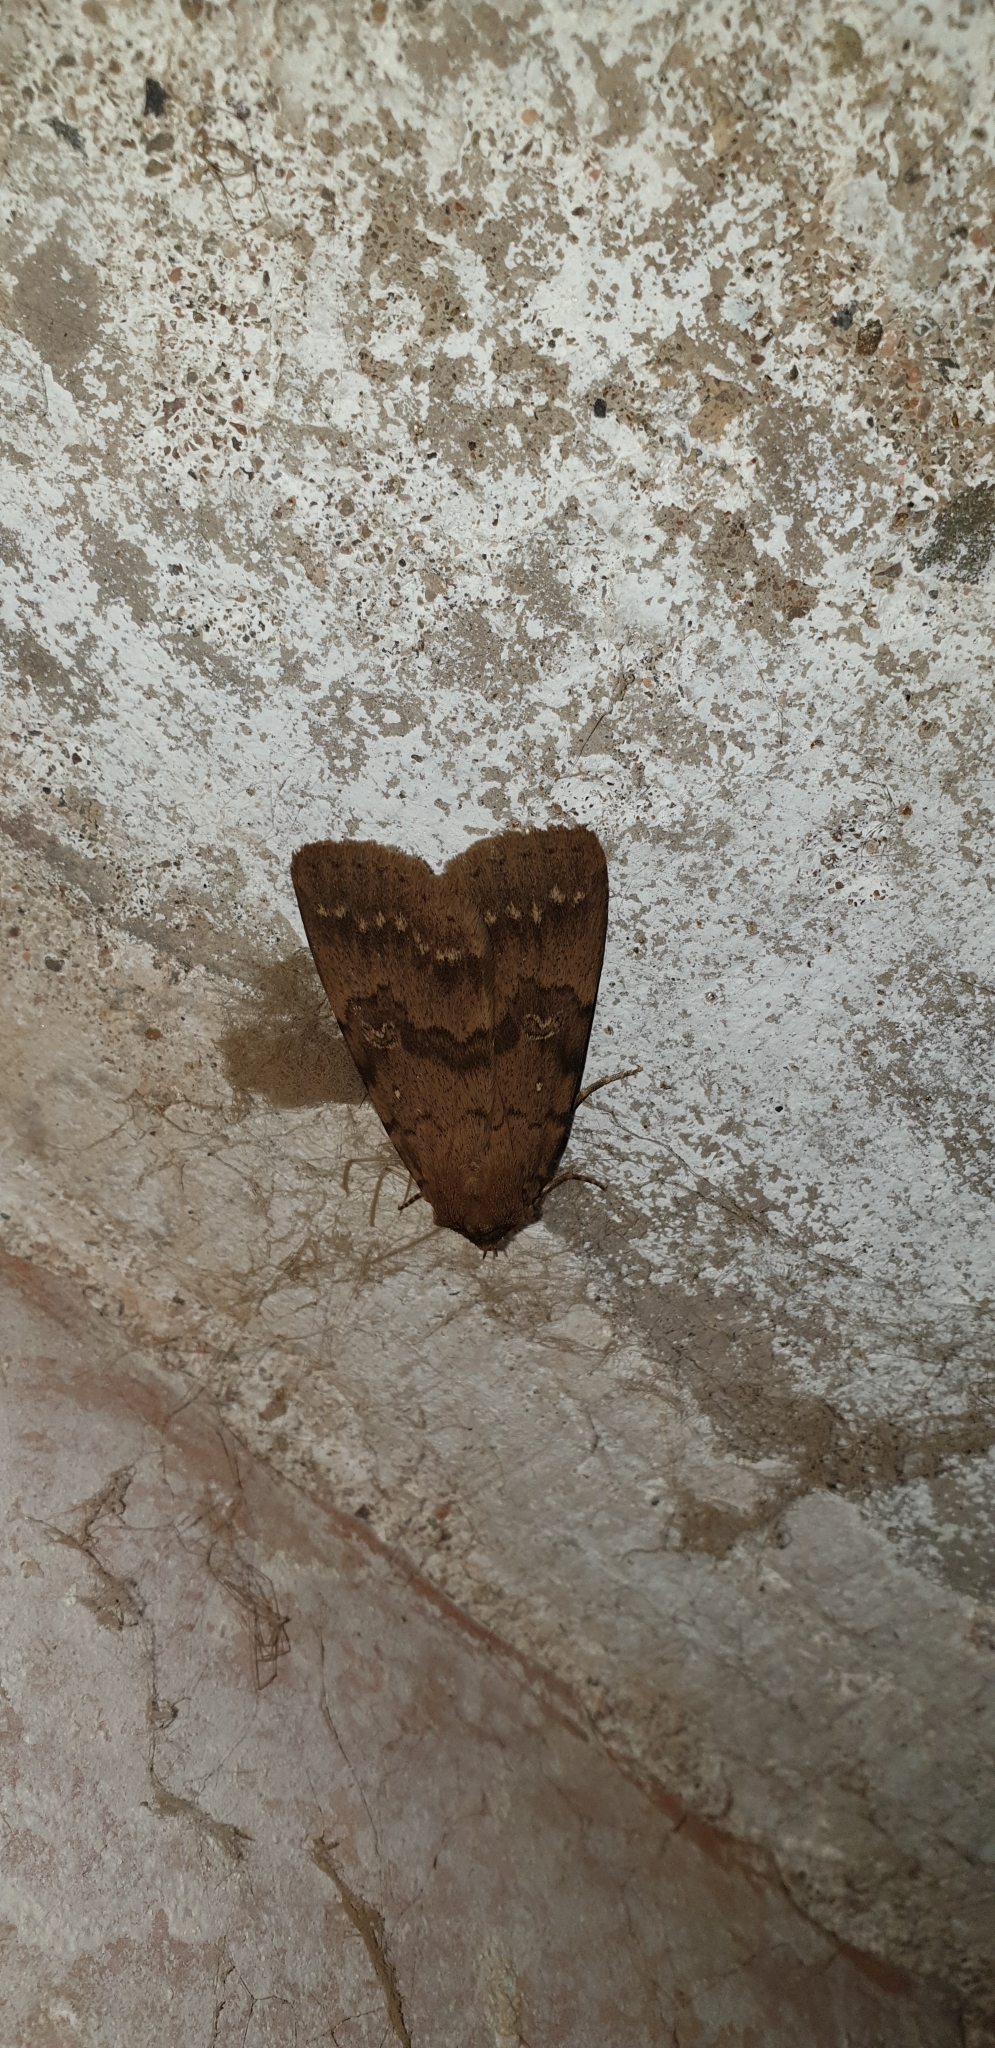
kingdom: Animalia
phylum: Arthropoda
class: Insecta
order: Lepidoptera
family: Erebidae
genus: Apopestes
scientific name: Apopestes spectrum
